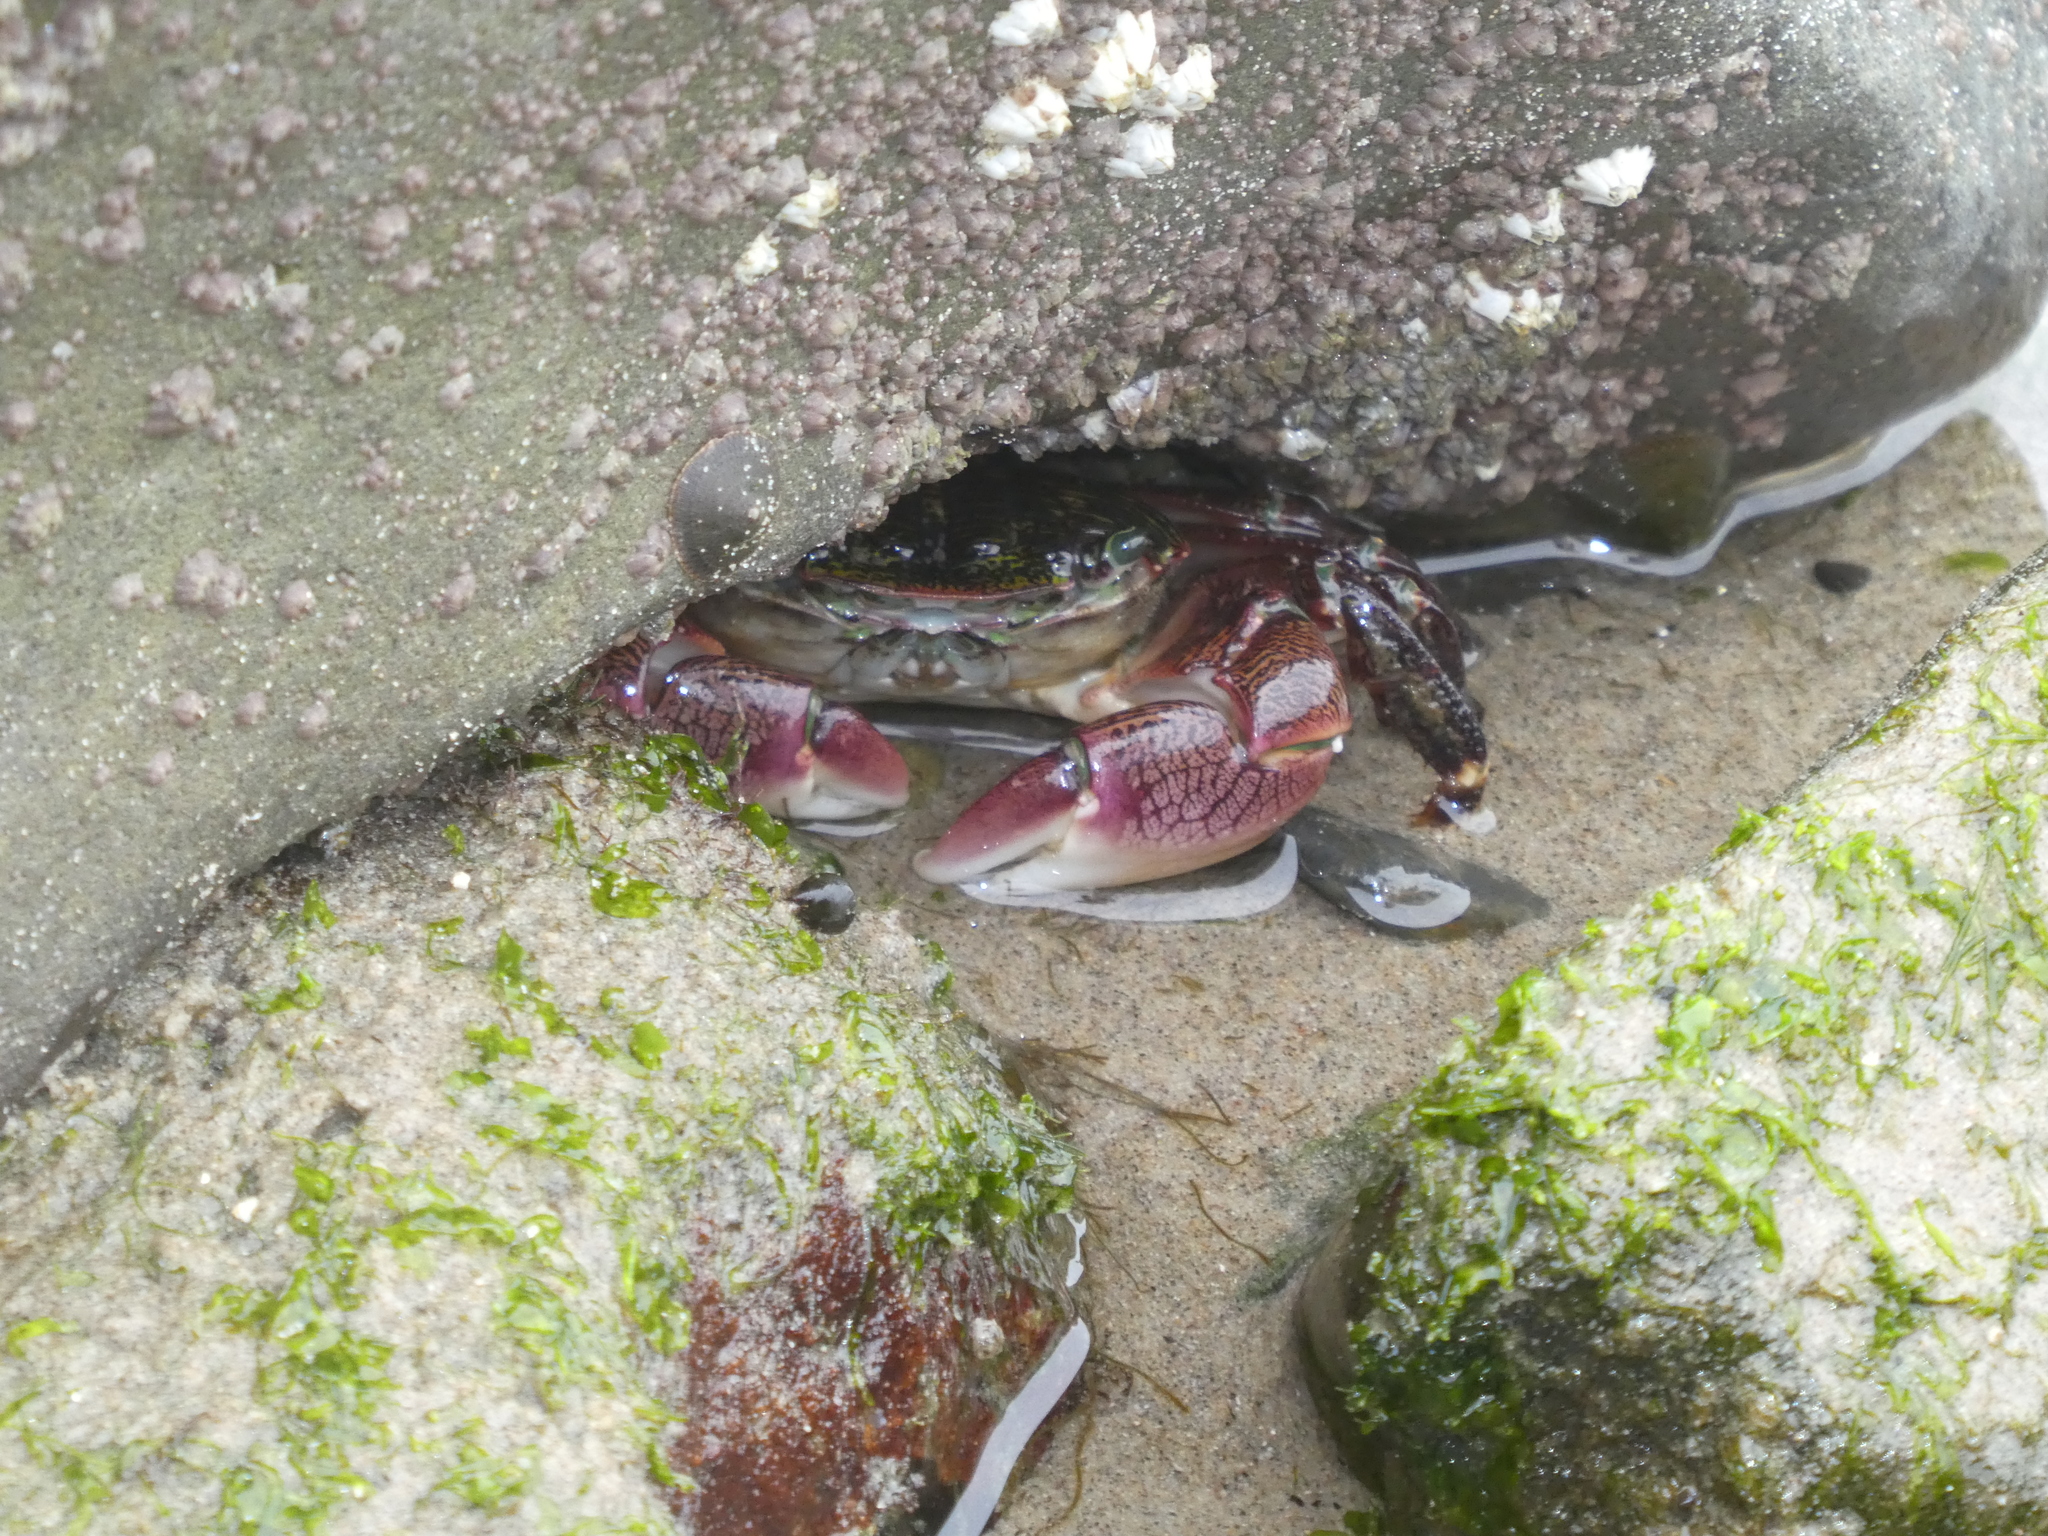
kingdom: Animalia
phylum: Arthropoda
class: Malacostraca
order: Decapoda
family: Grapsidae
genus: Pachygrapsus
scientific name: Pachygrapsus crassipes
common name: Striped shore crab
